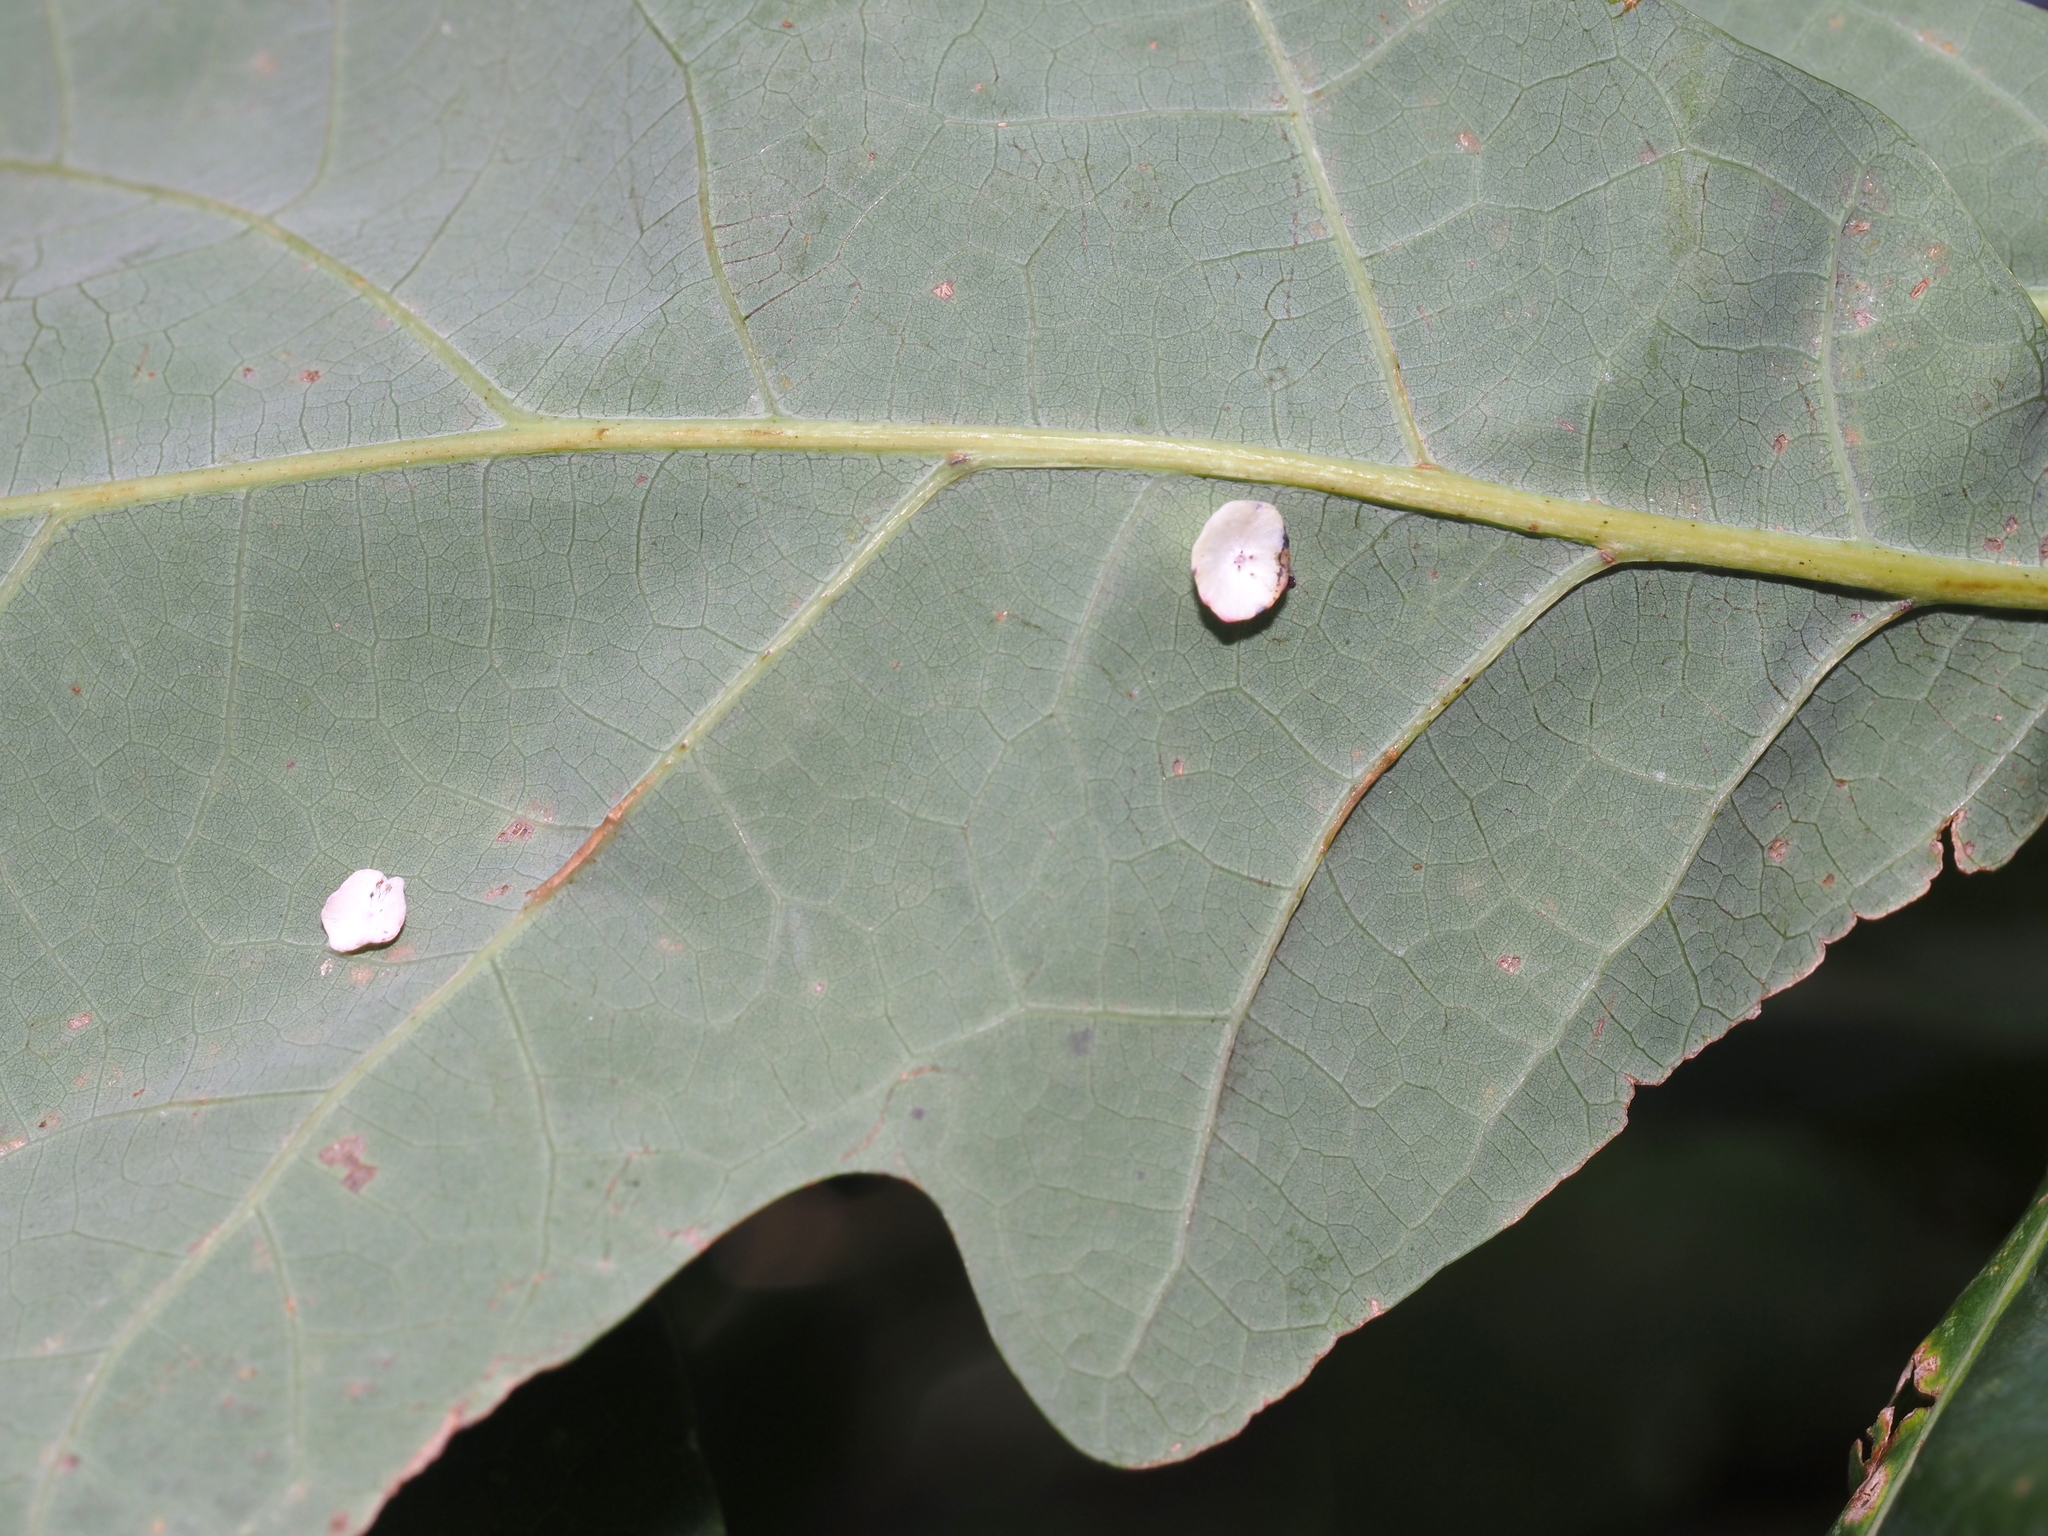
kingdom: Animalia
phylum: Arthropoda
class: Insecta
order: Hymenoptera
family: Cynipidae
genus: Phylloteras
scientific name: Phylloteras poculum
